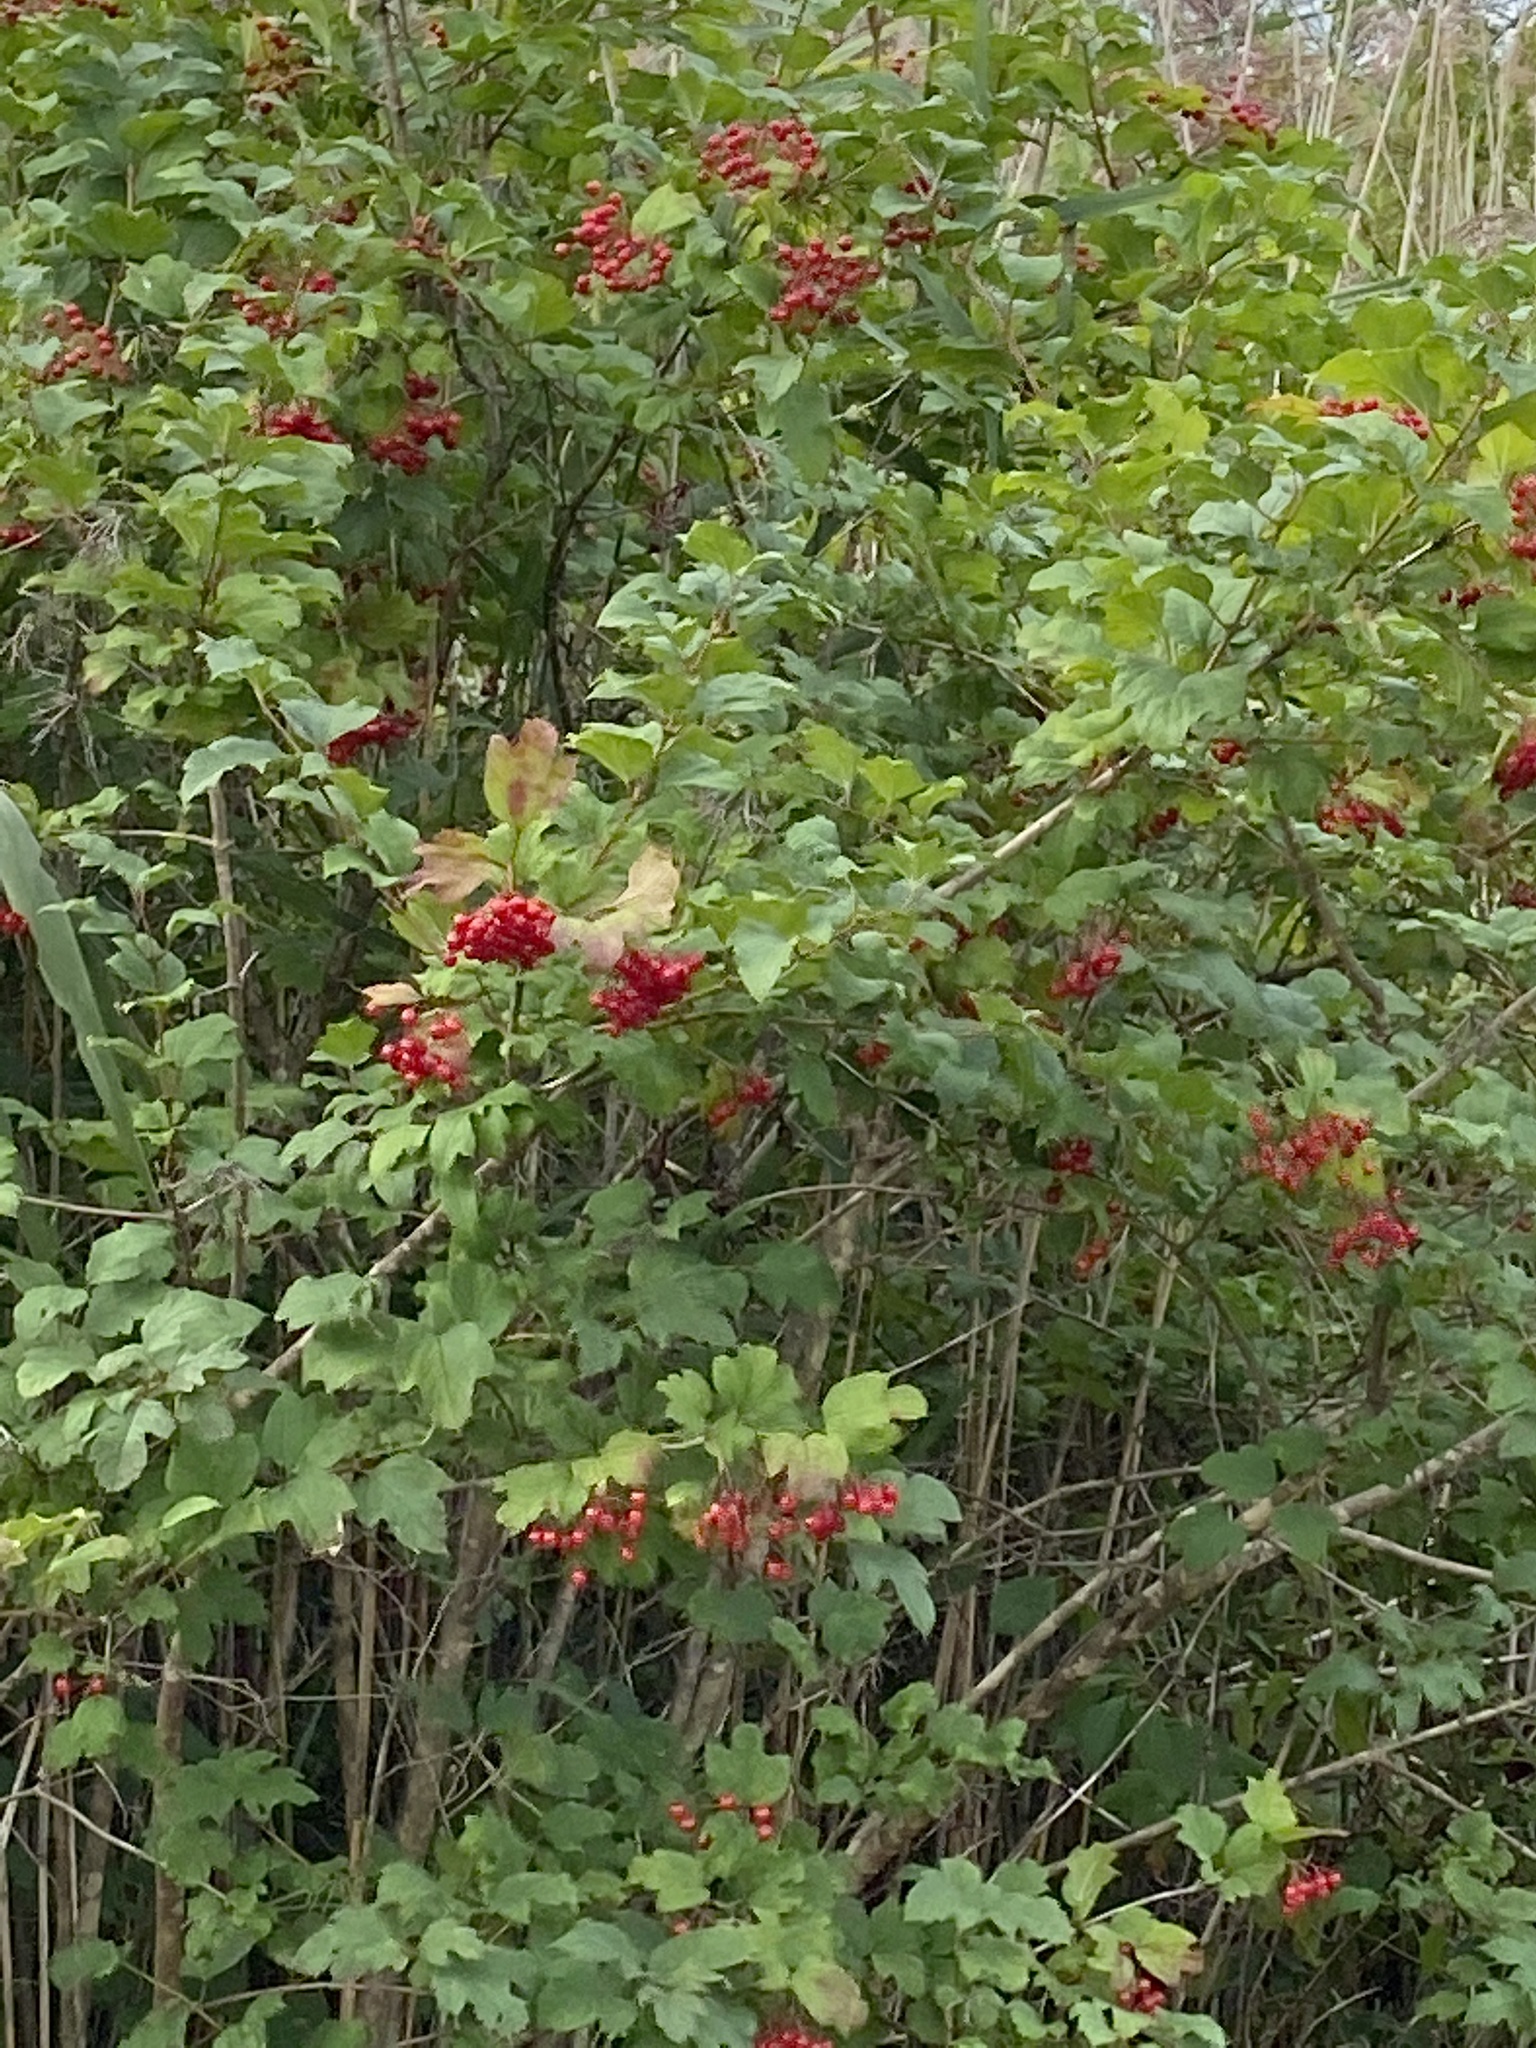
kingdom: Plantae
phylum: Tracheophyta
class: Magnoliopsida
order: Dipsacales
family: Viburnaceae
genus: Viburnum
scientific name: Viburnum opulus
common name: Guelder-rose
